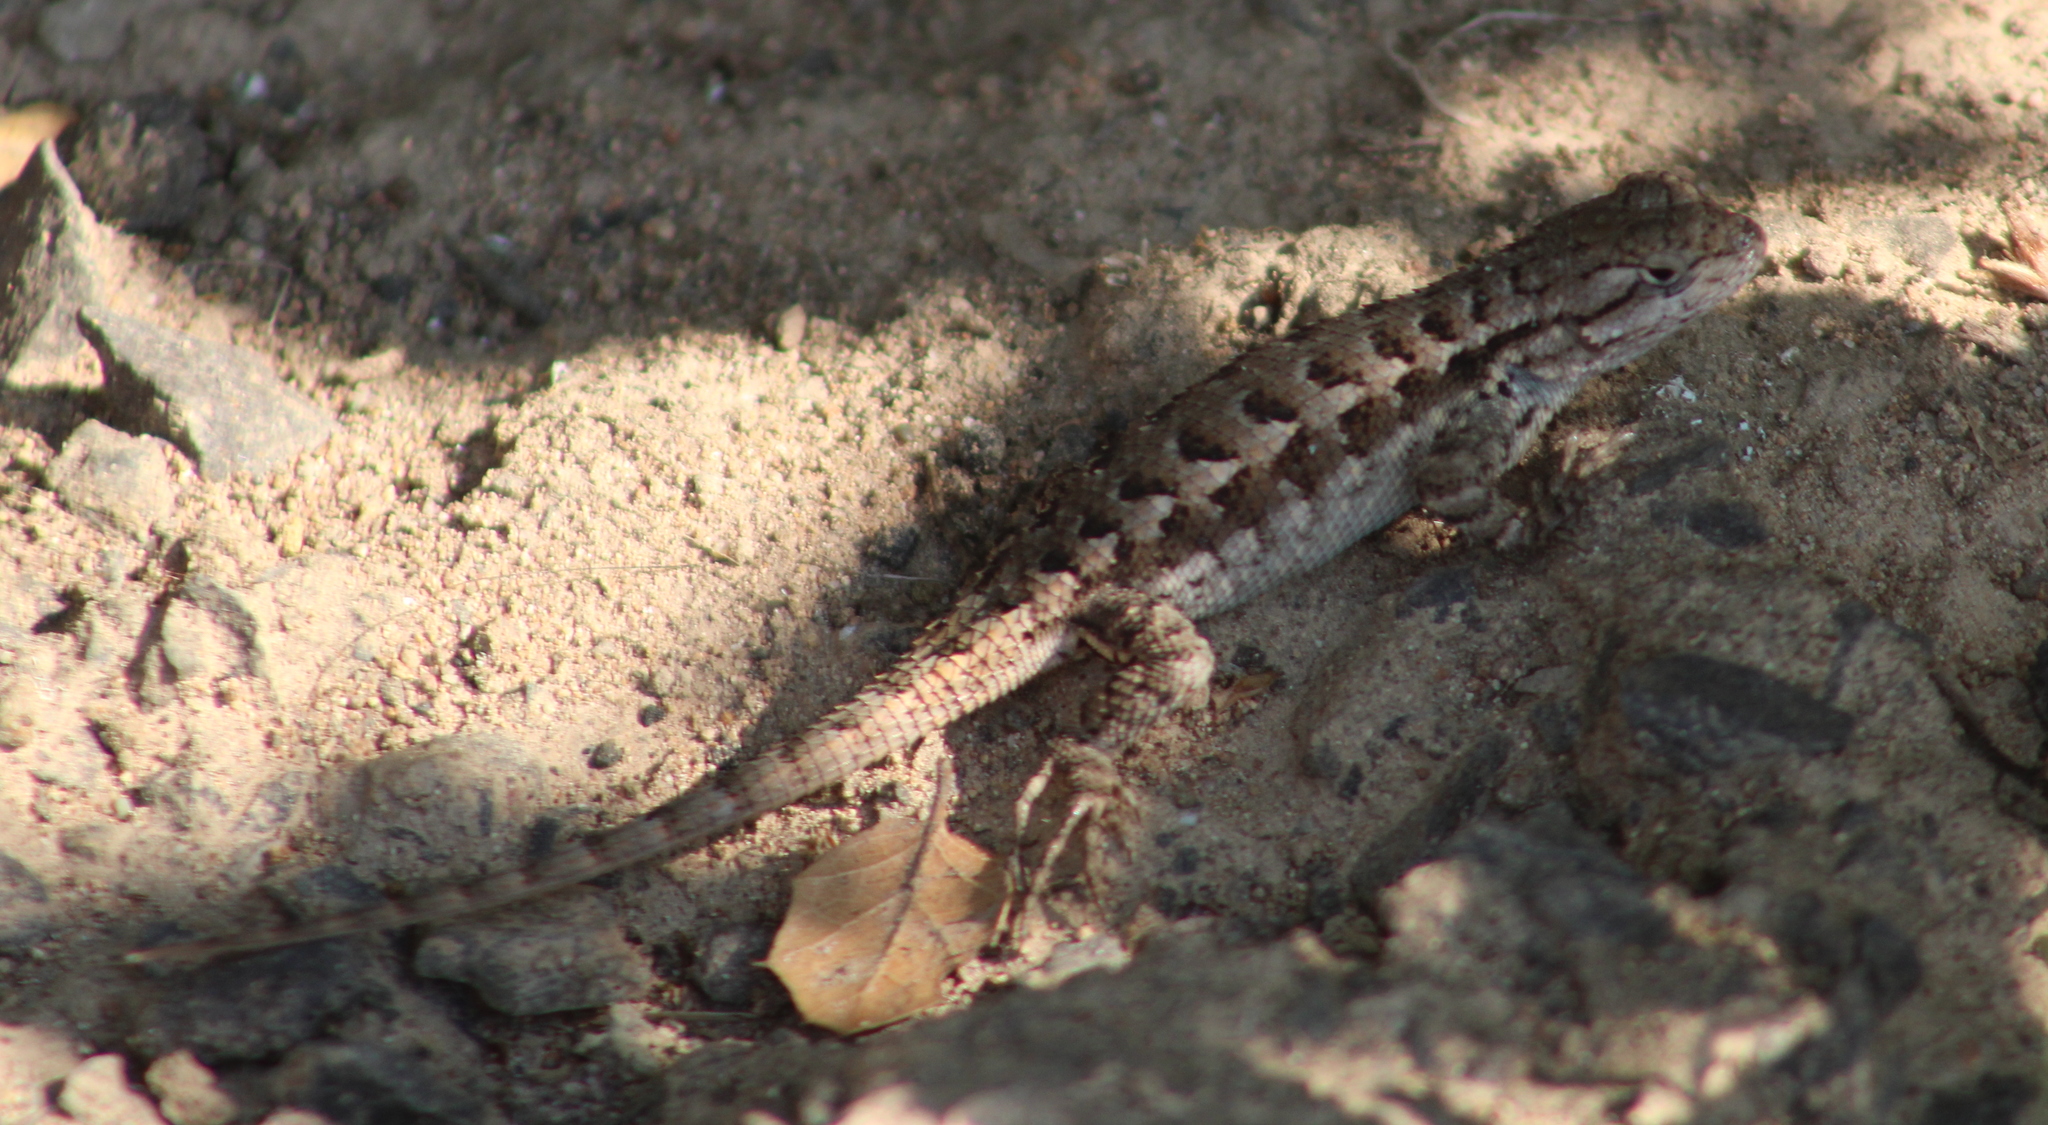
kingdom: Animalia
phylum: Chordata
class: Squamata
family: Phrynosomatidae
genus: Sceloporus
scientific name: Sceloporus occidentalis
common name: Western fence lizard
